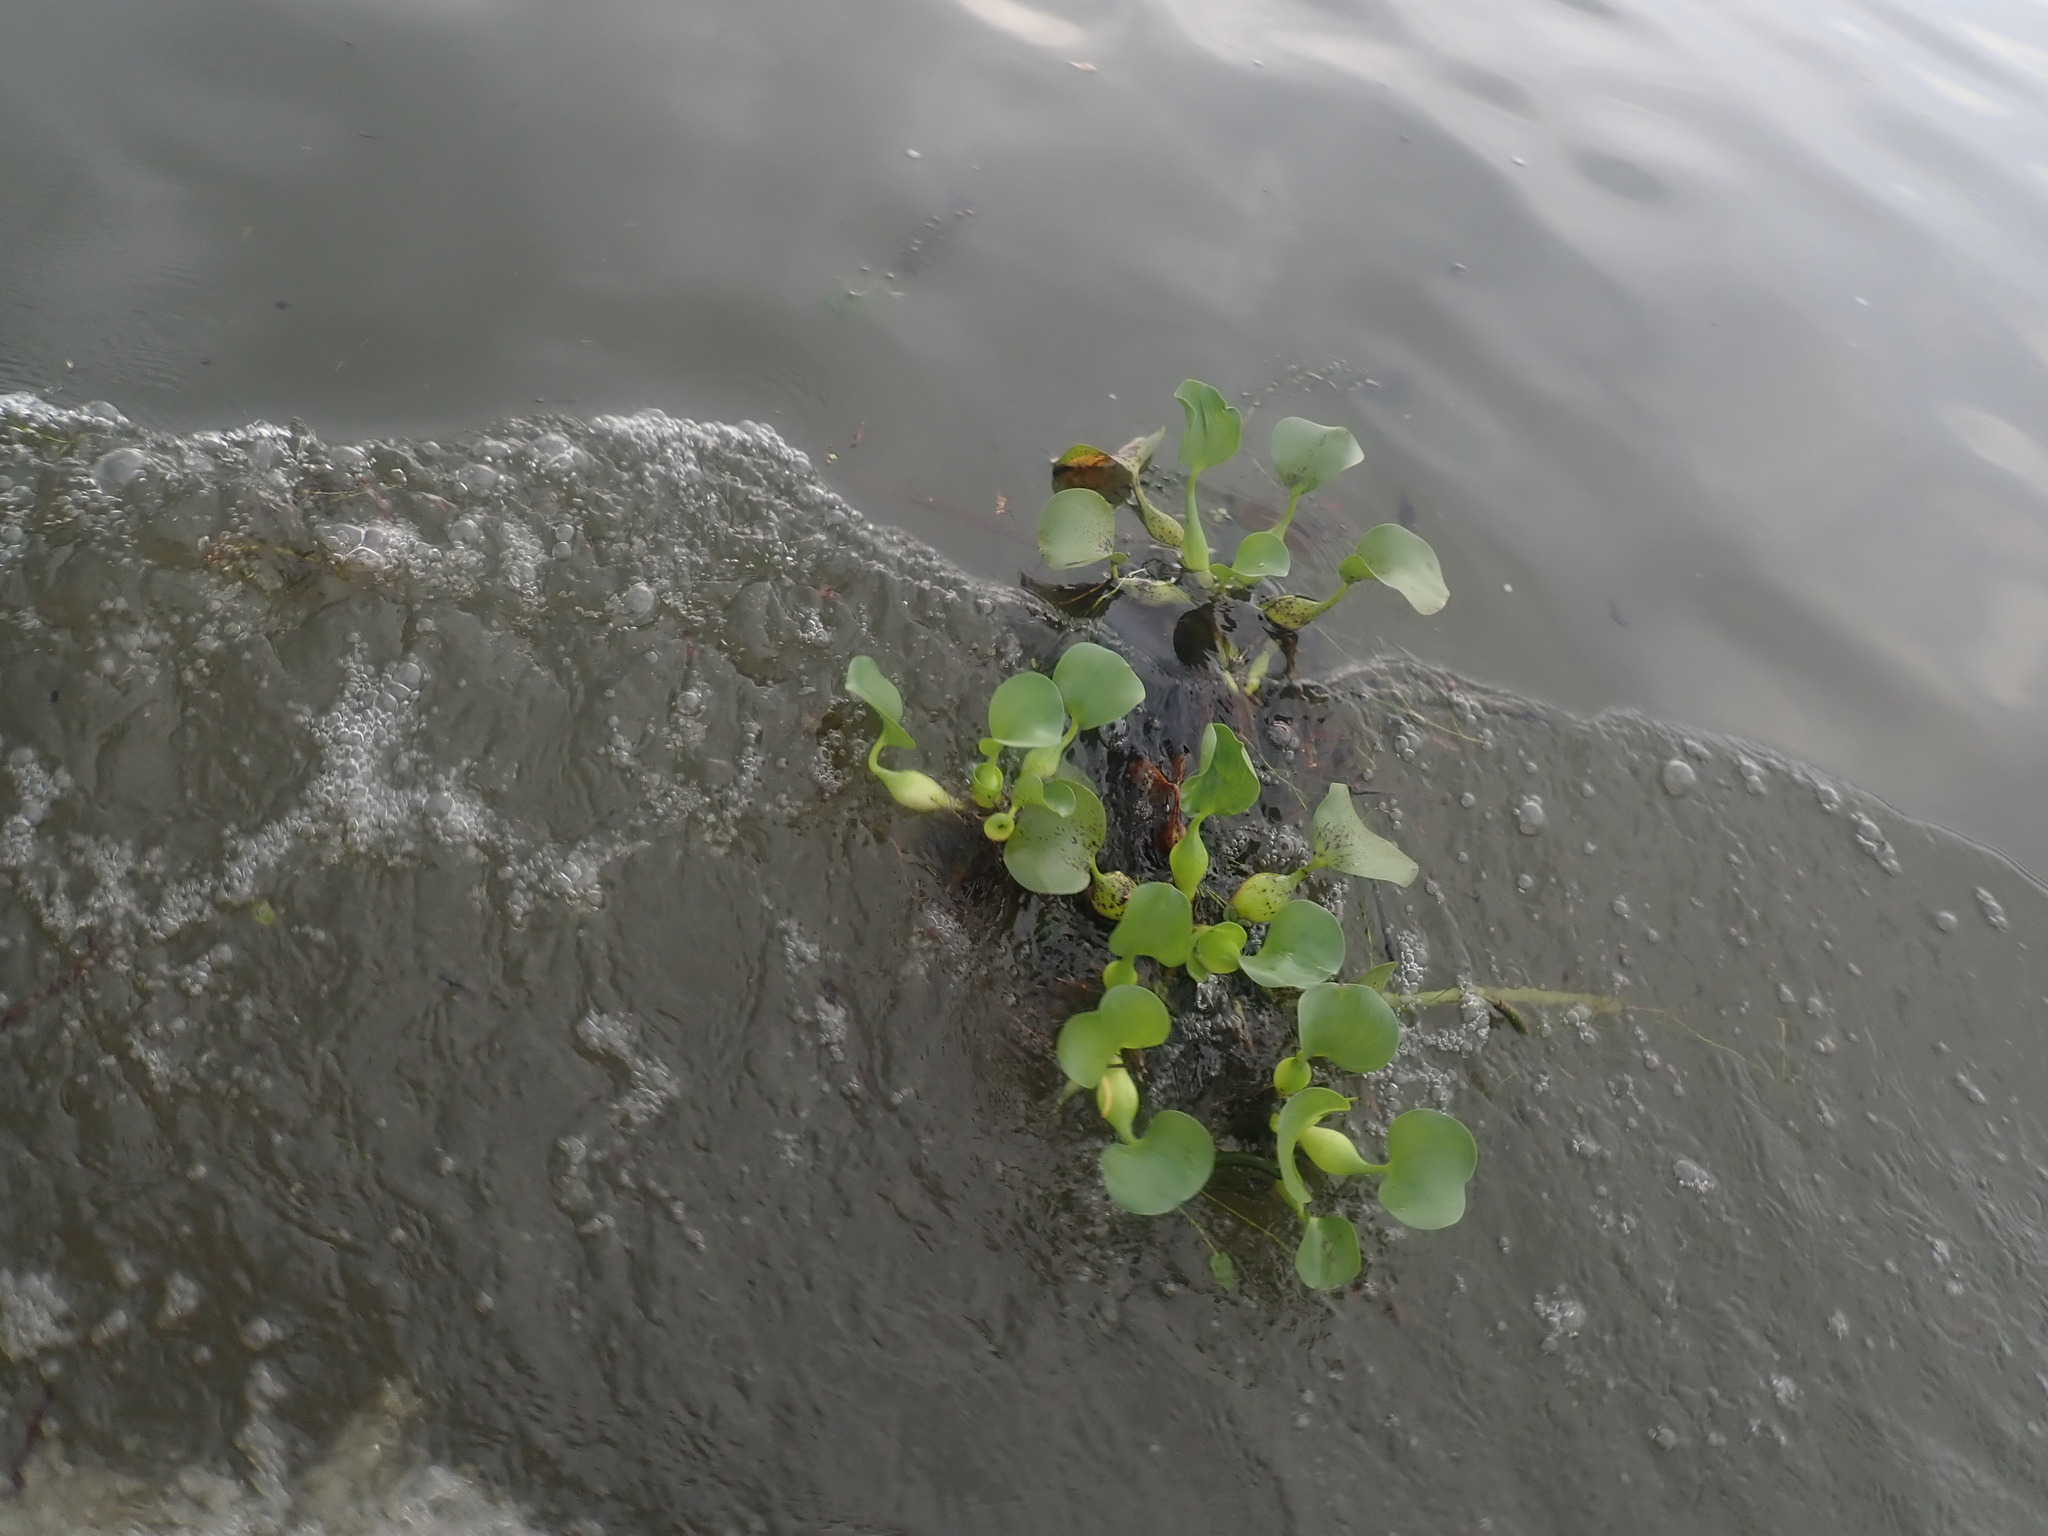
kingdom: Plantae
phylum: Tracheophyta
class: Liliopsida
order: Commelinales
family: Pontederiaceae
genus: Pontederia
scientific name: Pontederia crassipes
